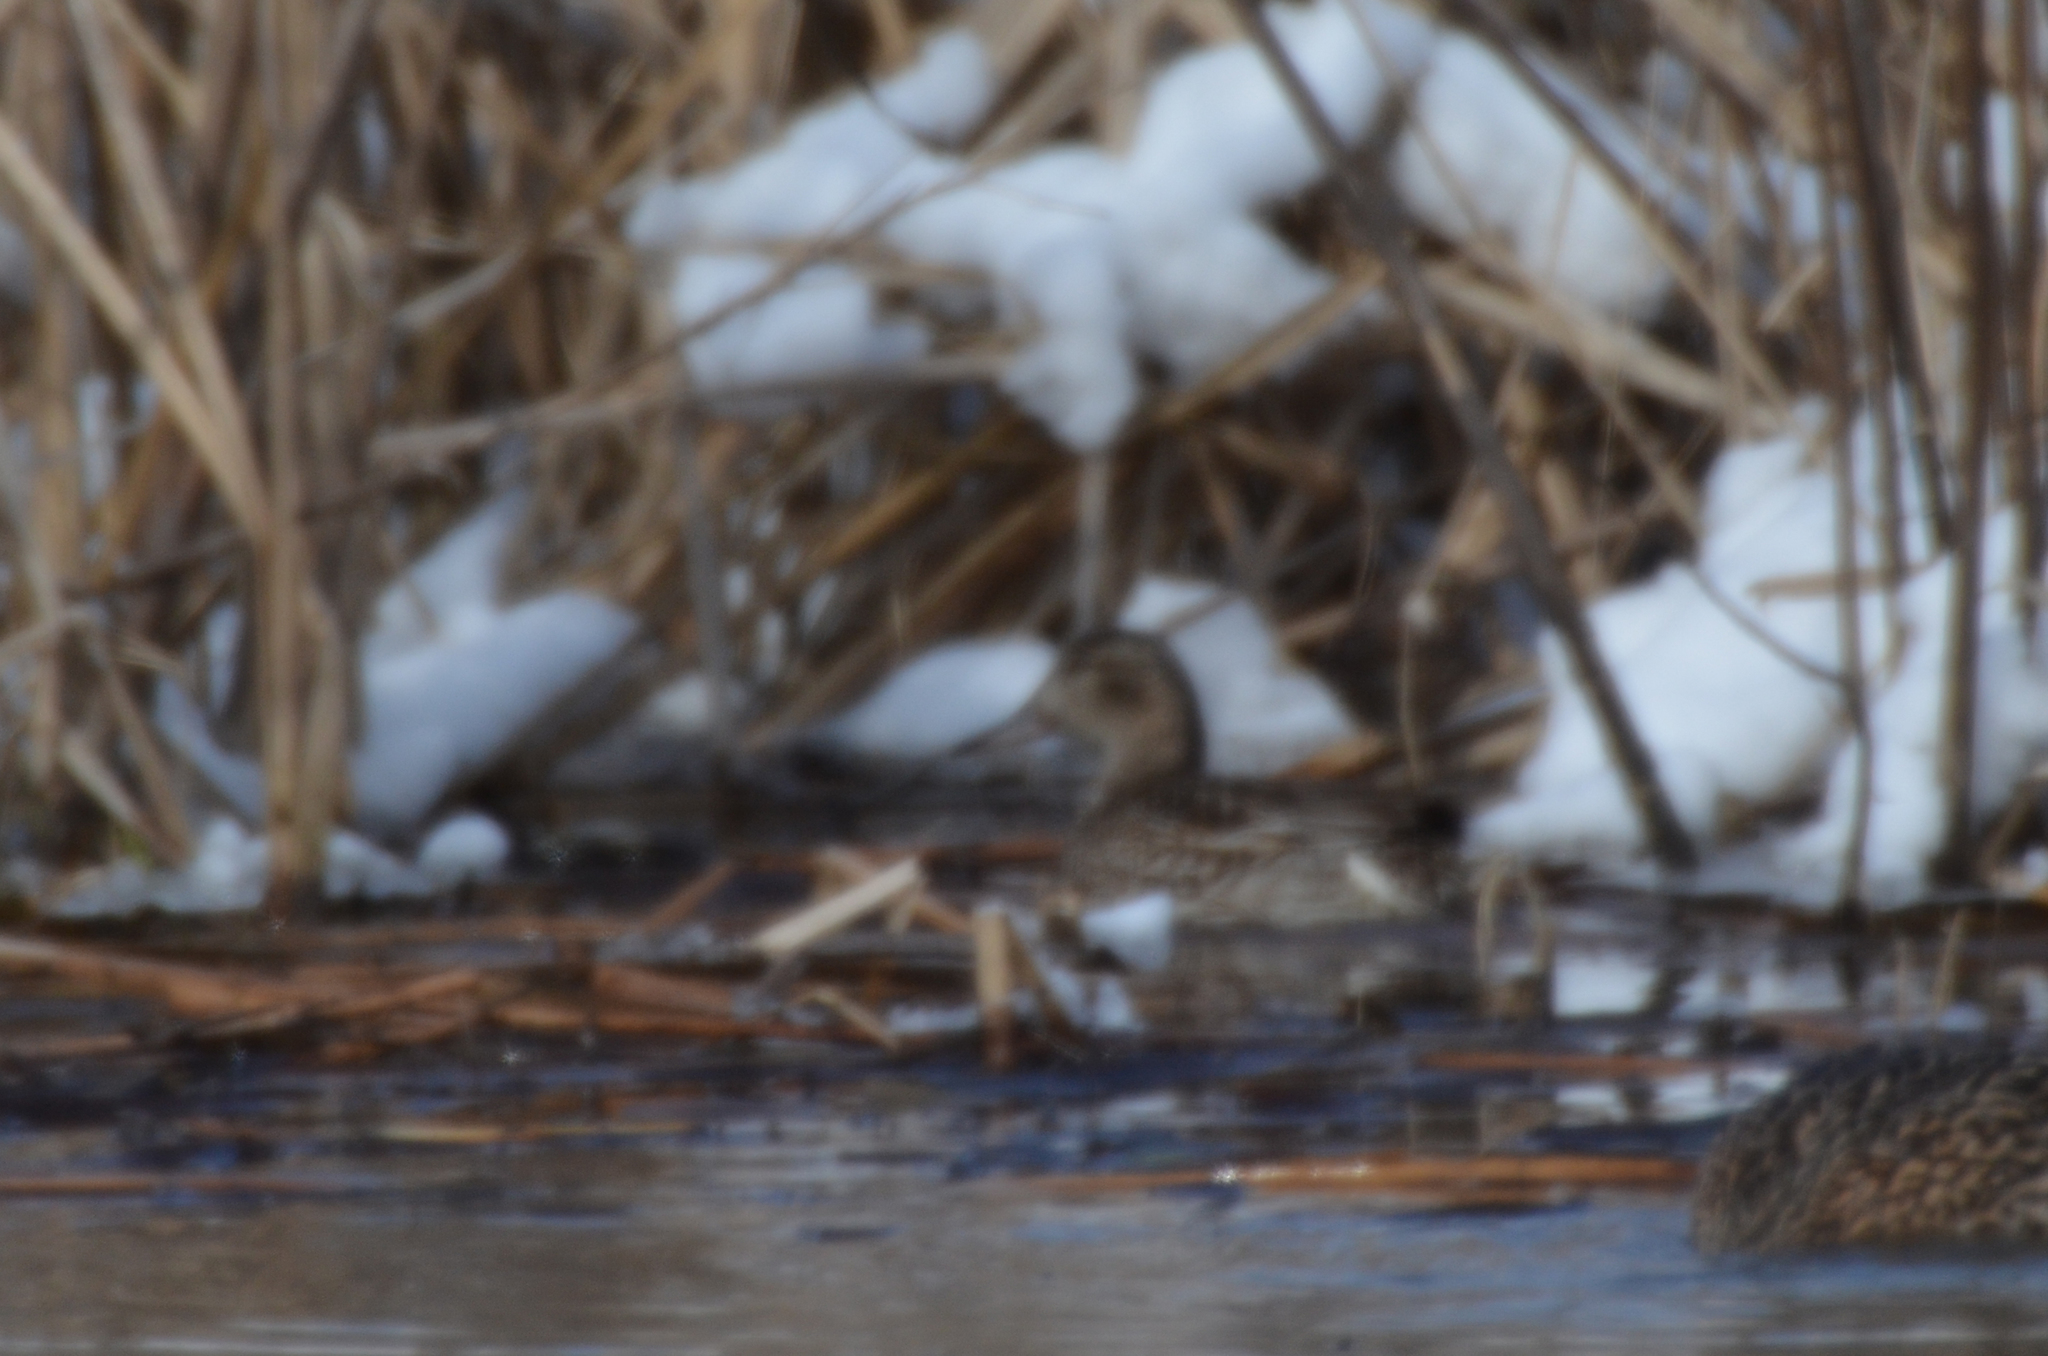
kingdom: Animalia
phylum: Chordata
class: Aves
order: Anseriformes
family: Anatidae
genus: Anas
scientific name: Anas crecca
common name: Eurasian teal
